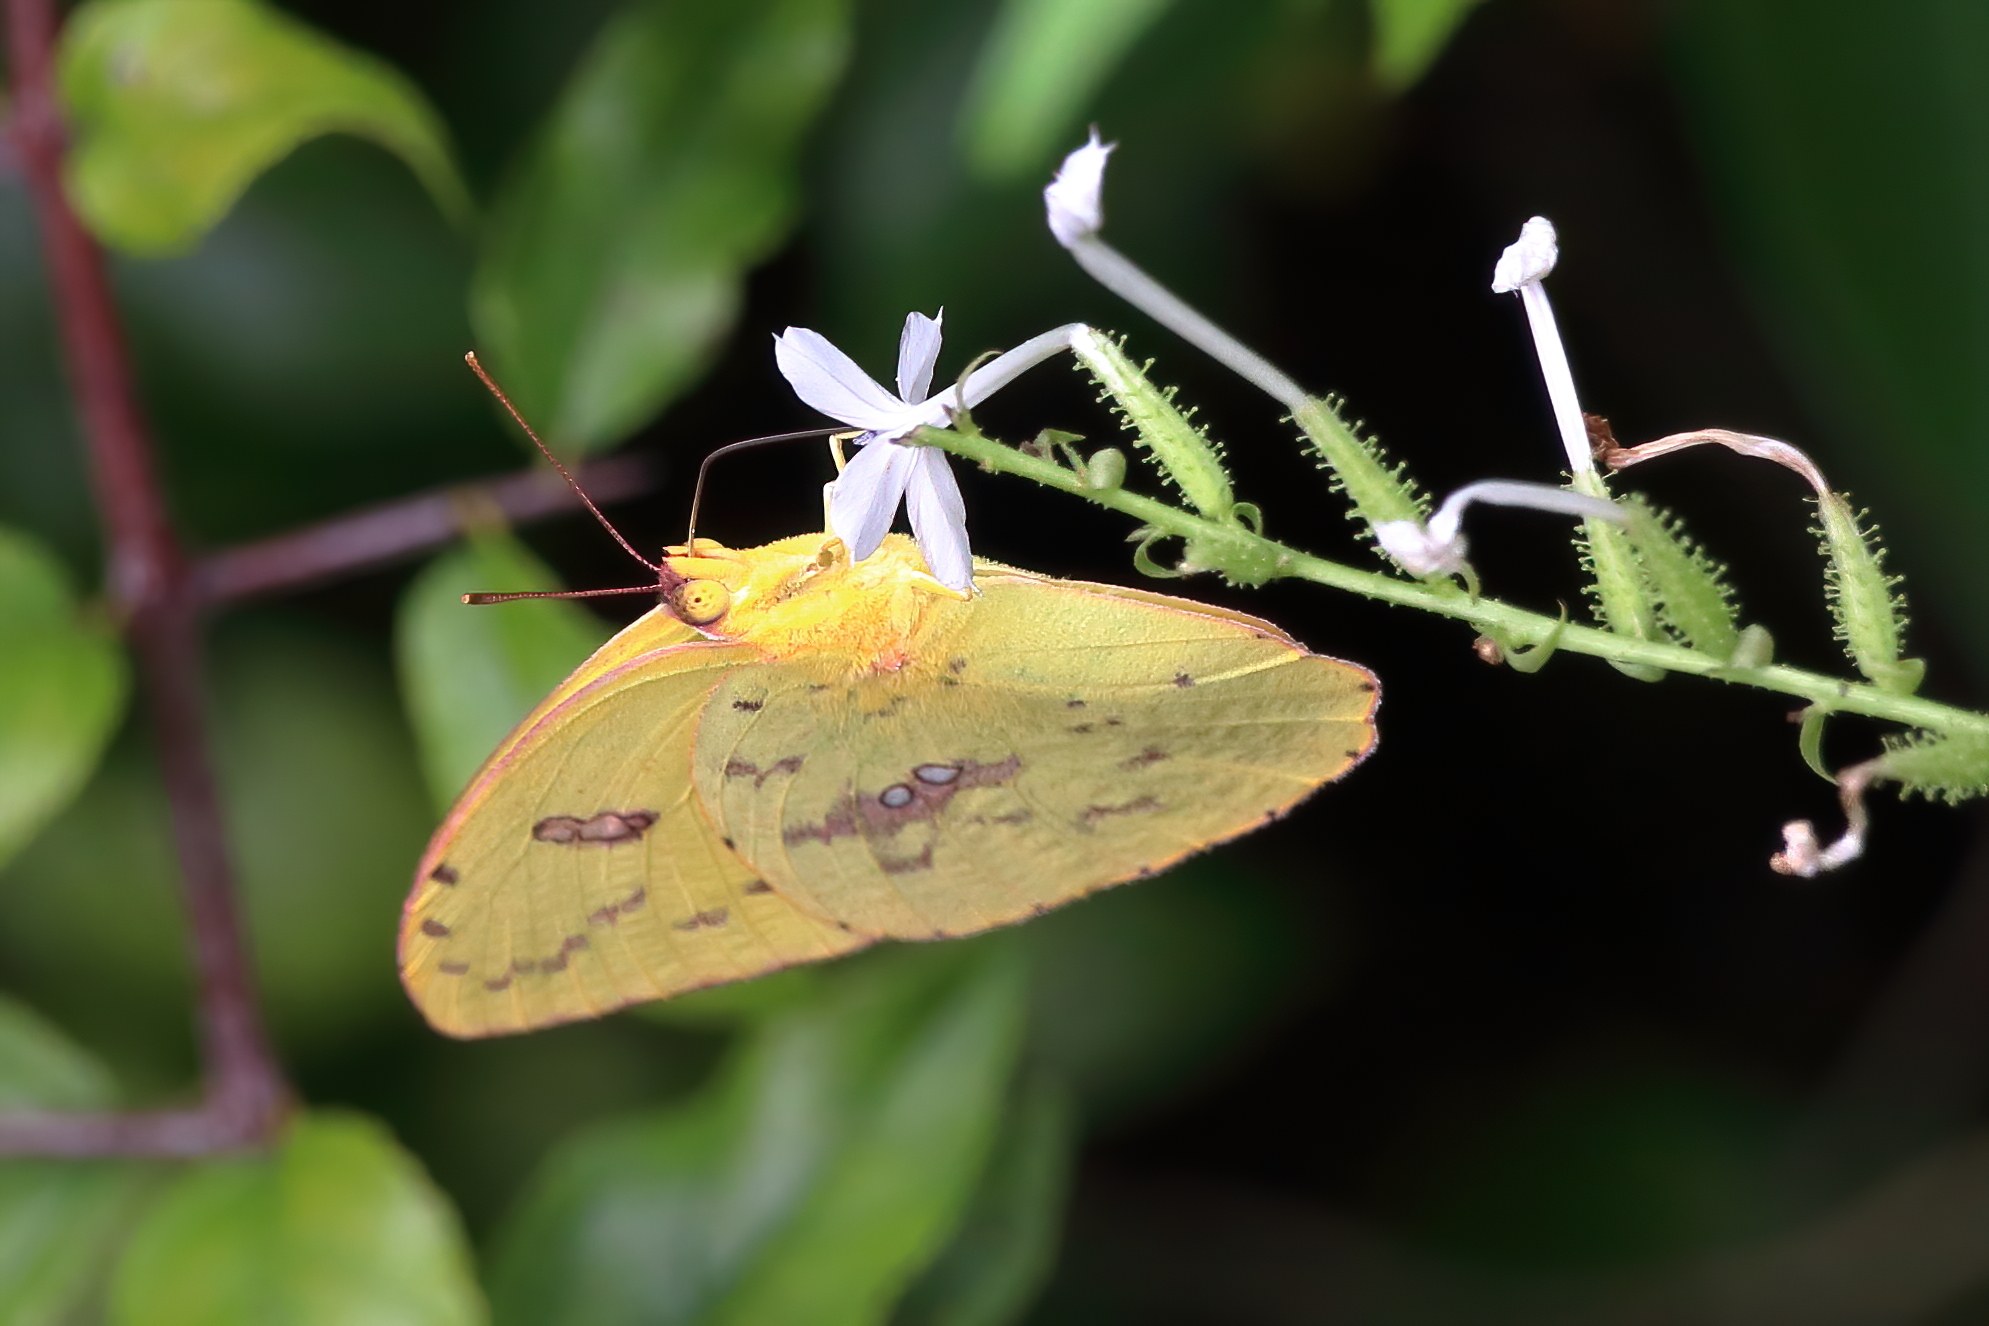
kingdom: Animalia
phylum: Arthropoda
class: Insecta
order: Lepidoptera
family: Pieridae
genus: Phoebis
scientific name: Phoebis sennae
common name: Cloudless sulphur
